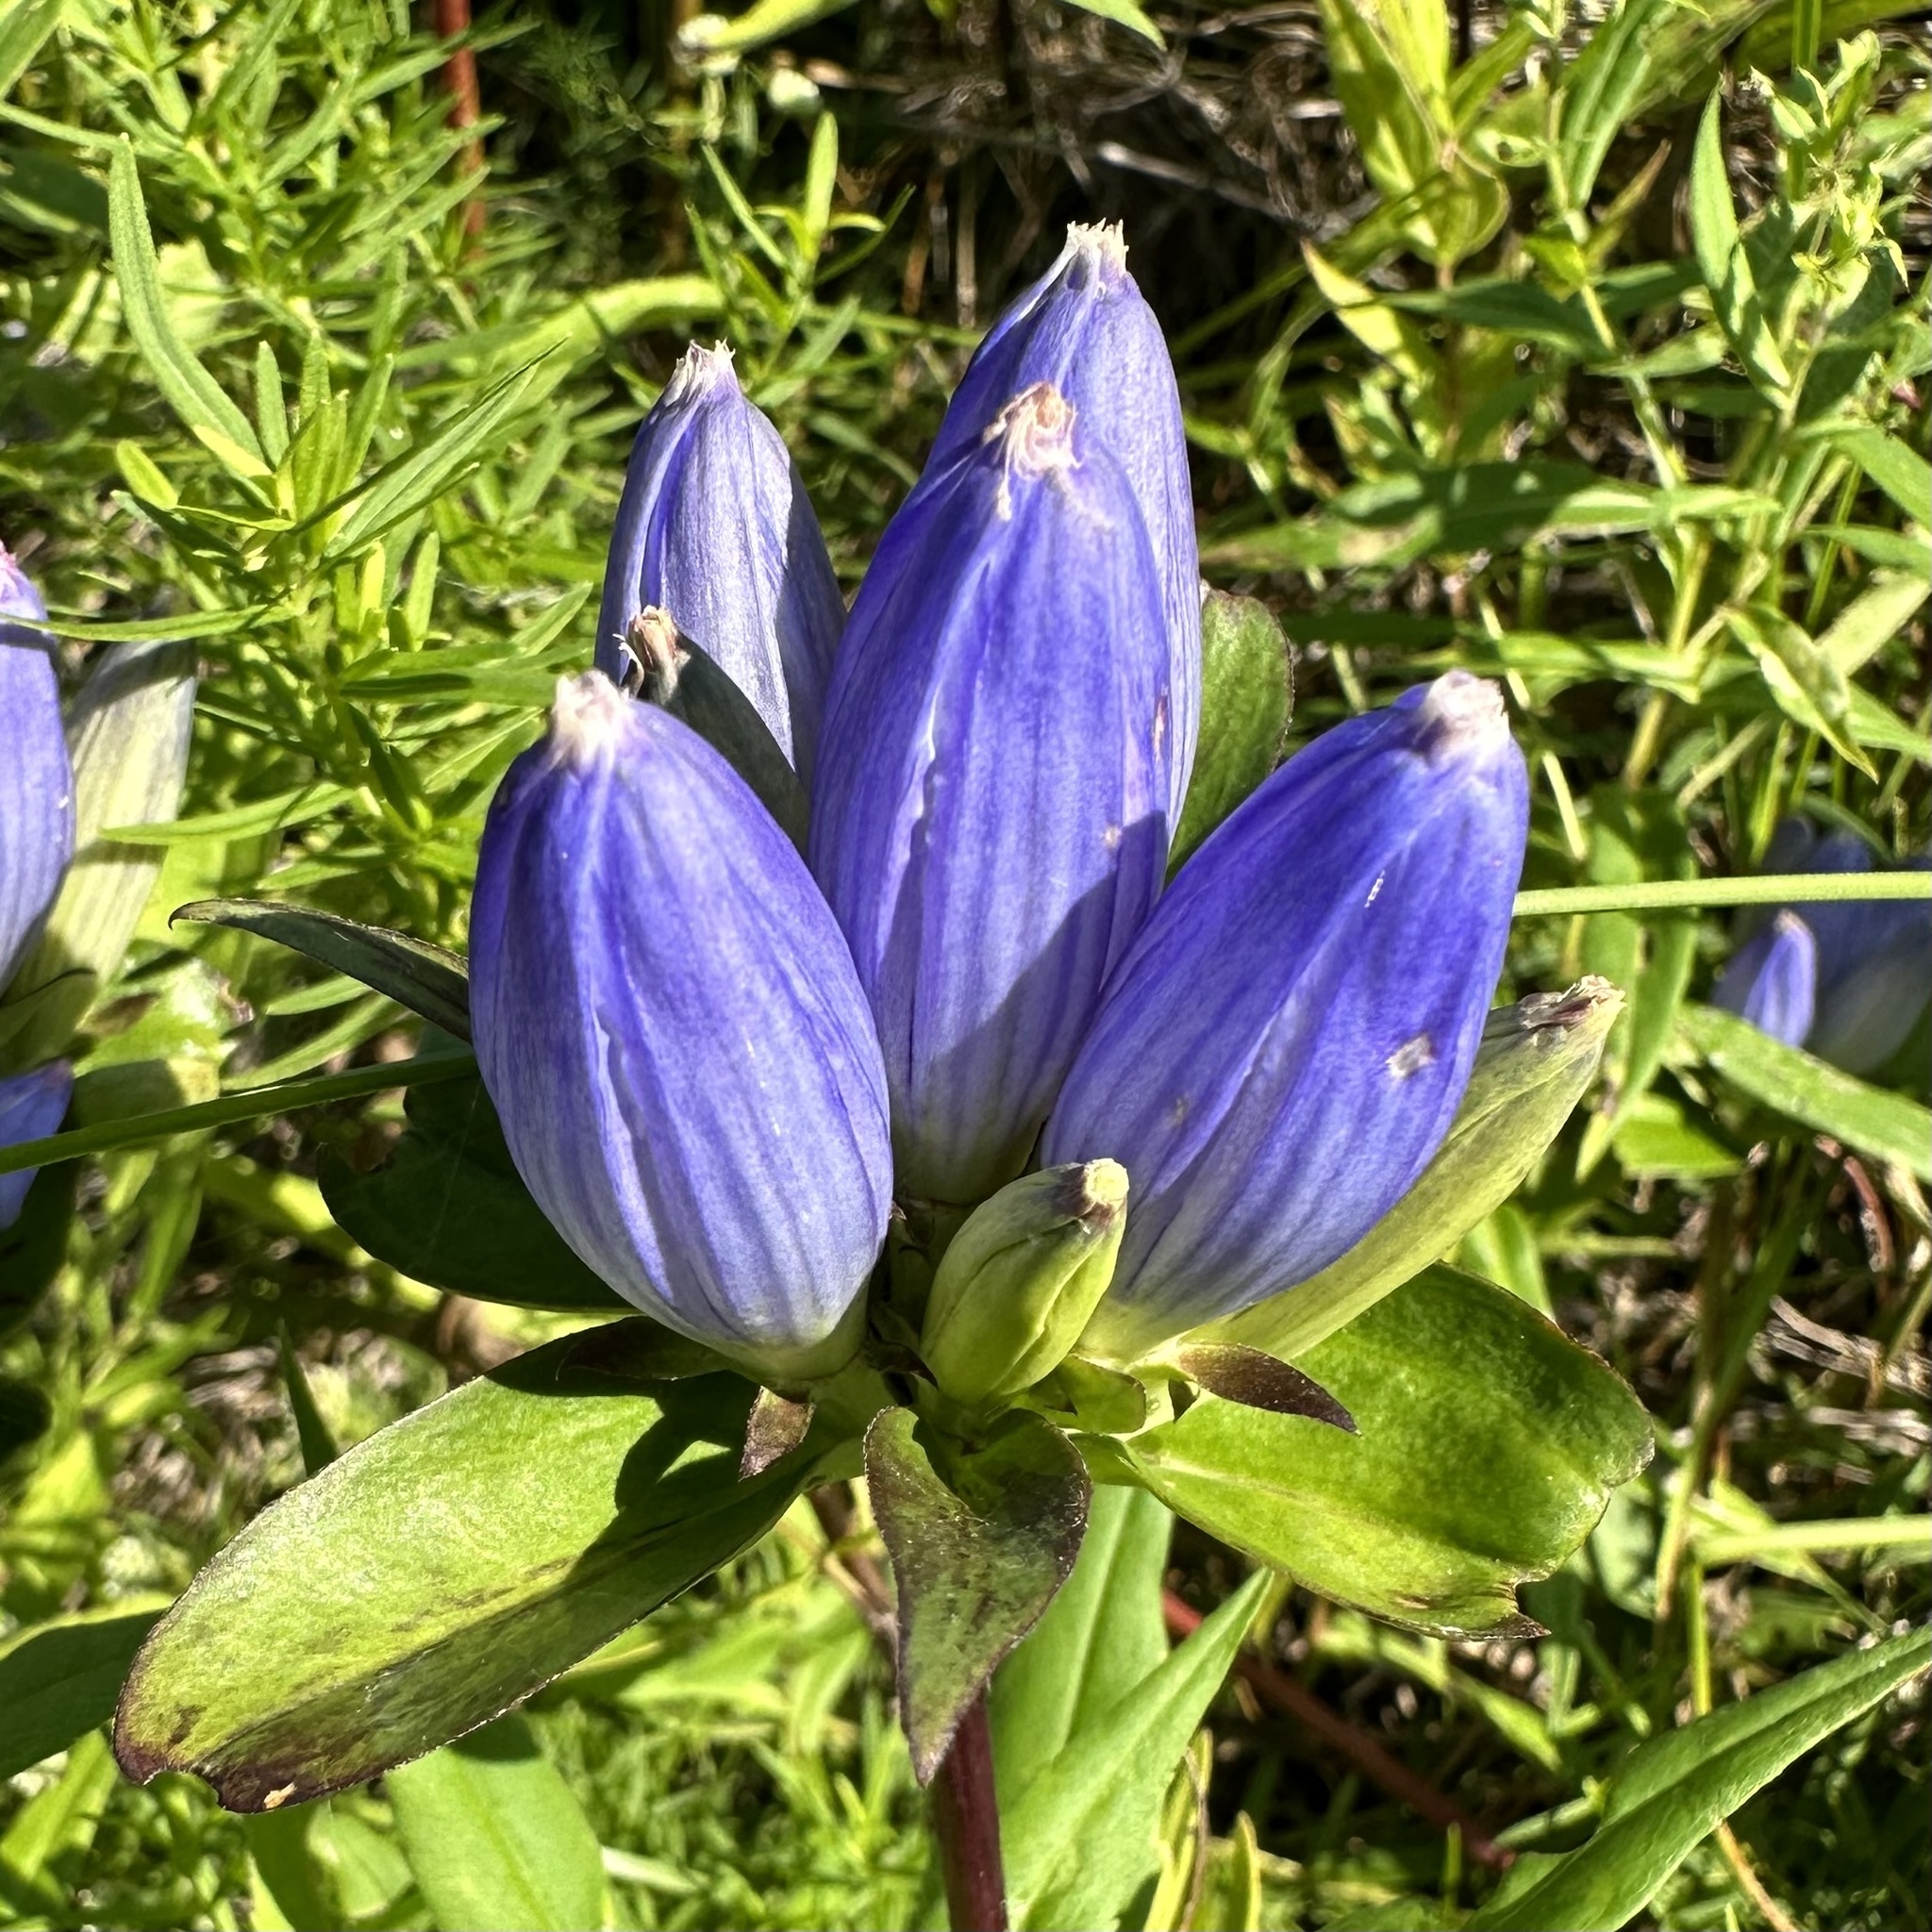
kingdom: Plantae
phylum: Tracheophyta
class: Magnoliopsida
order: Gentianales
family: Gentianaceae
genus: Gentiana
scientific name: Gentiana andrewsii
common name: Bottle gentian
